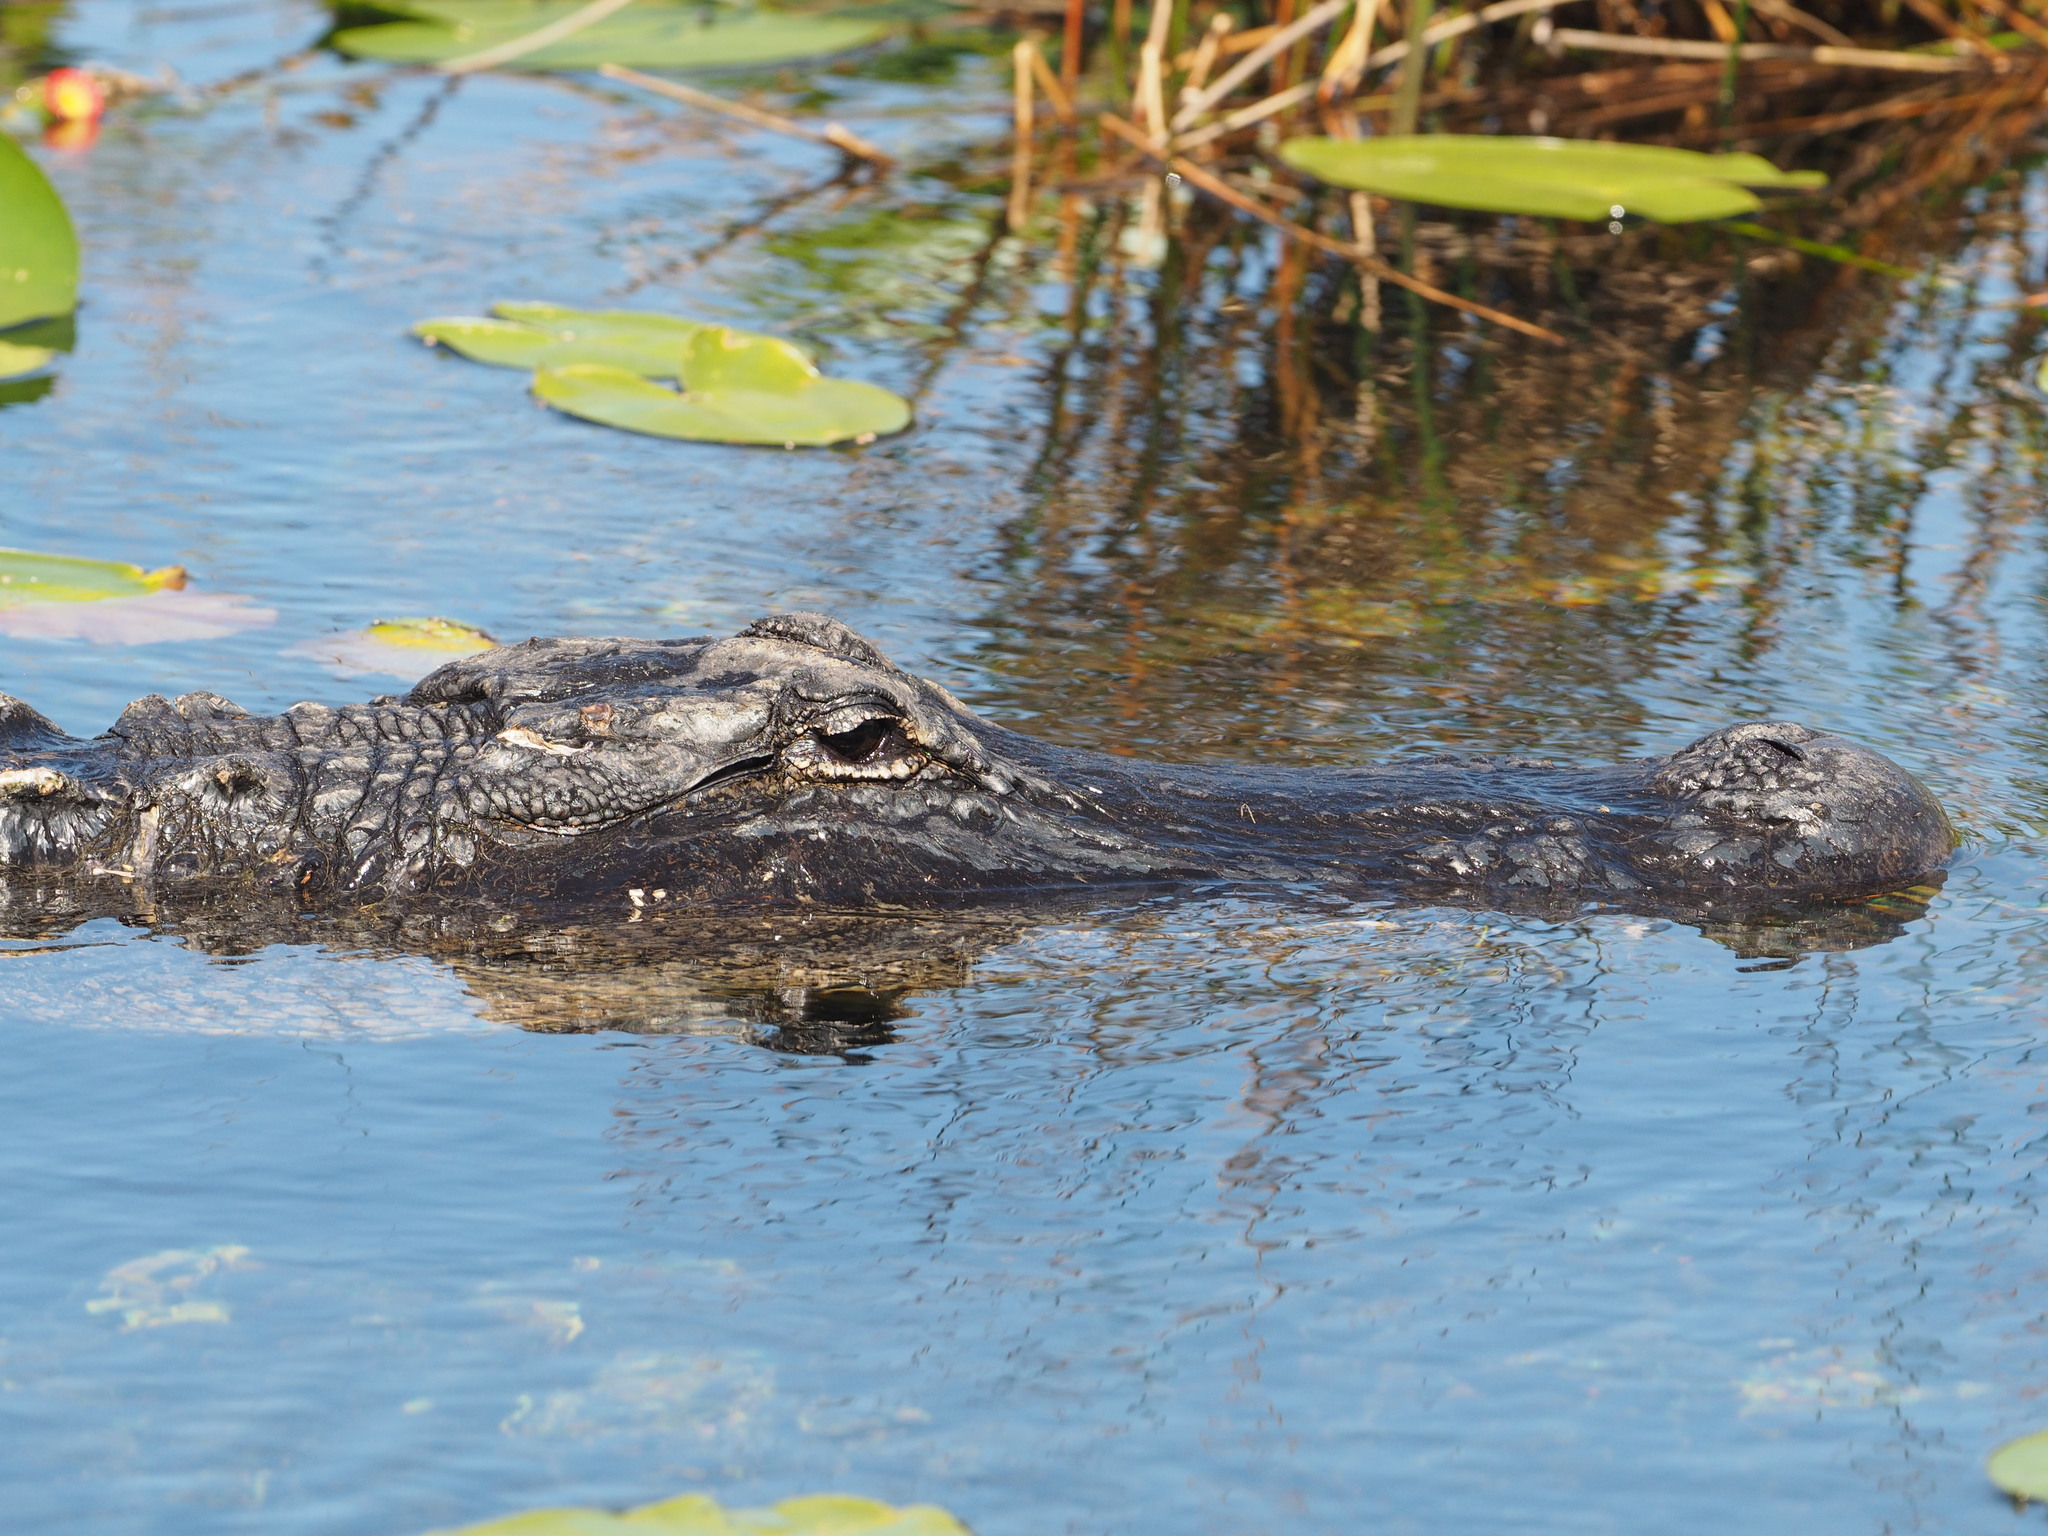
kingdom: Animalia
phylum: Chordata
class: Crocodylia
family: Alligatoridae
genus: Alligator
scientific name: Alligator mississippiensis
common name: American alligator
